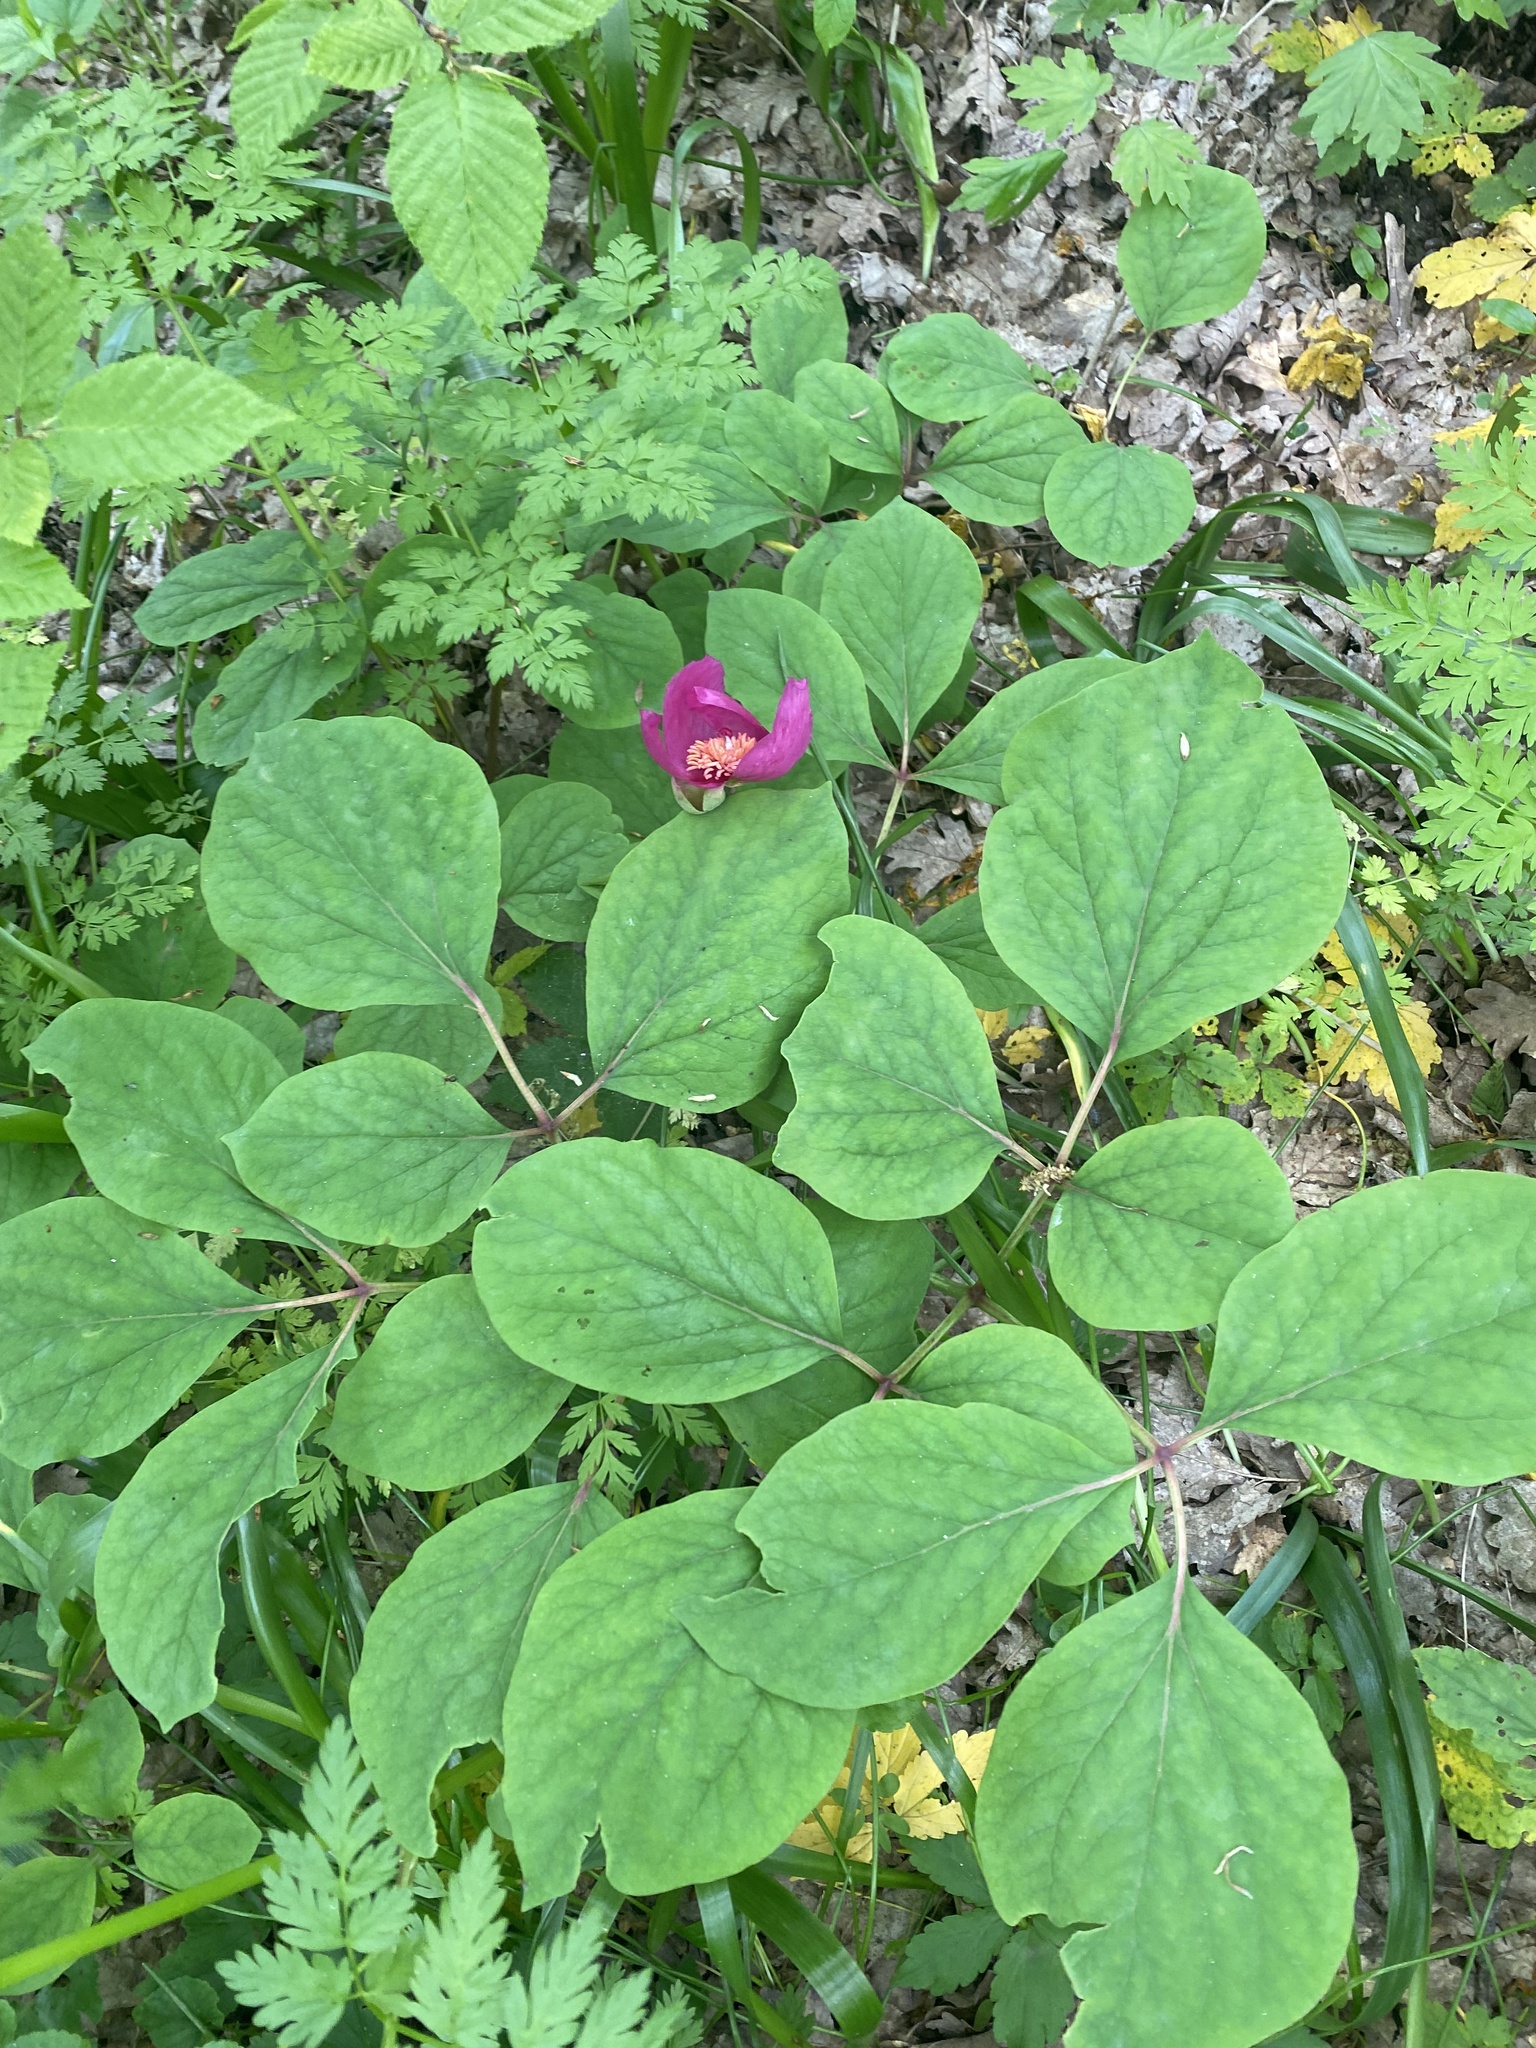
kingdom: Plantae
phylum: Tracheophyta
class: Magnoliopsida
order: Saxifragales
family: Paeoniaceae
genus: Paeonia
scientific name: Paeonia caucasica
